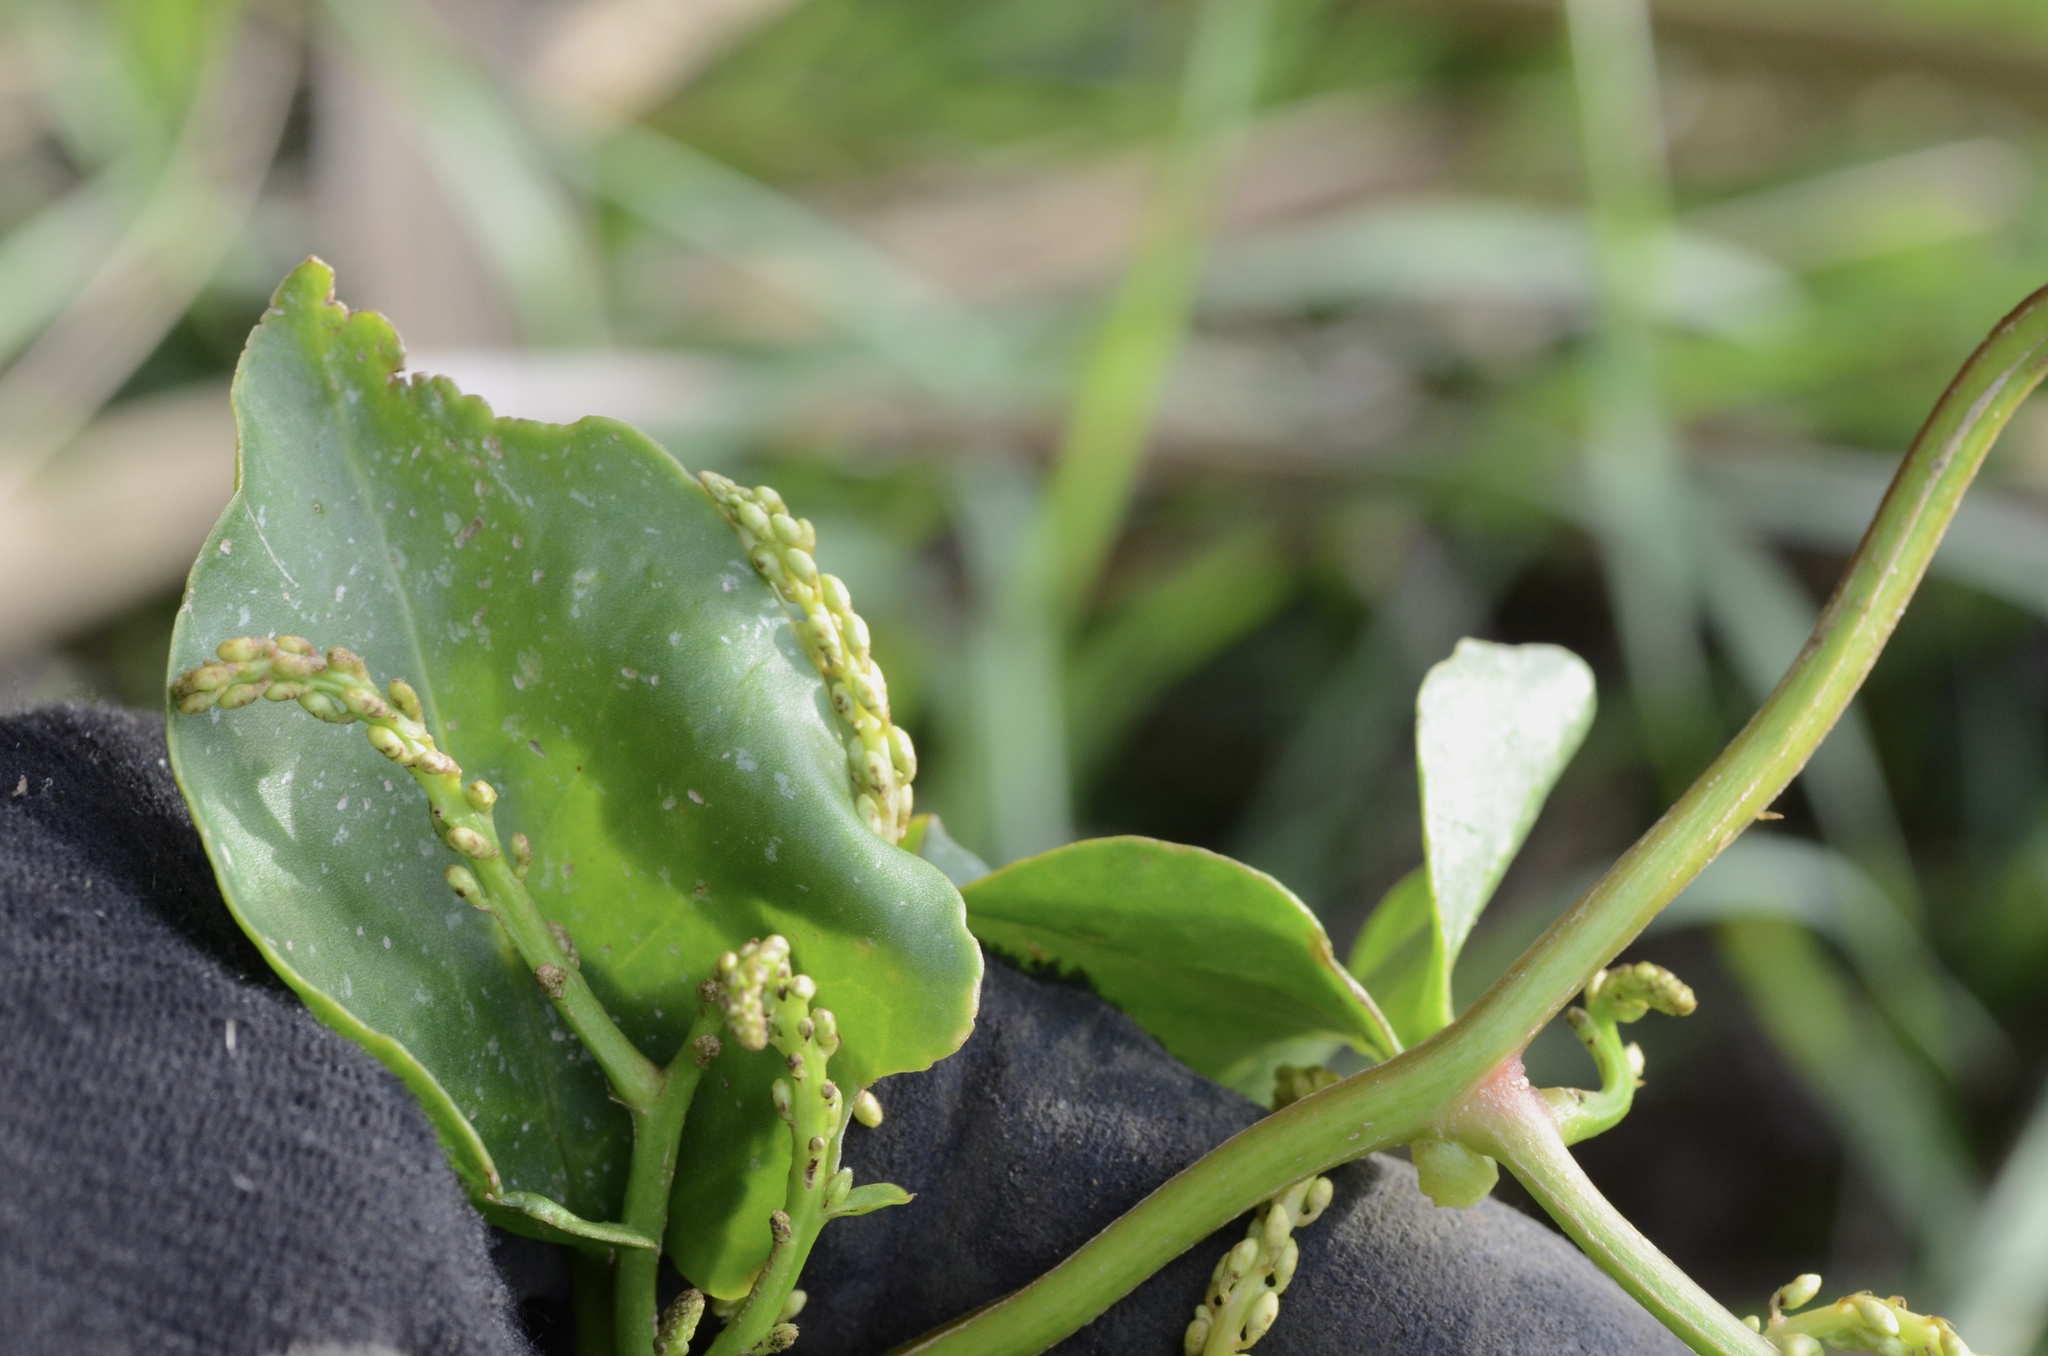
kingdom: Plantae
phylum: Tracheophyta
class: Magnoliopsida
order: Caryophyllales
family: Basellaceae
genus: Anredera
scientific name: Anredera cordifolia
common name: Heartleaf madeiravine
